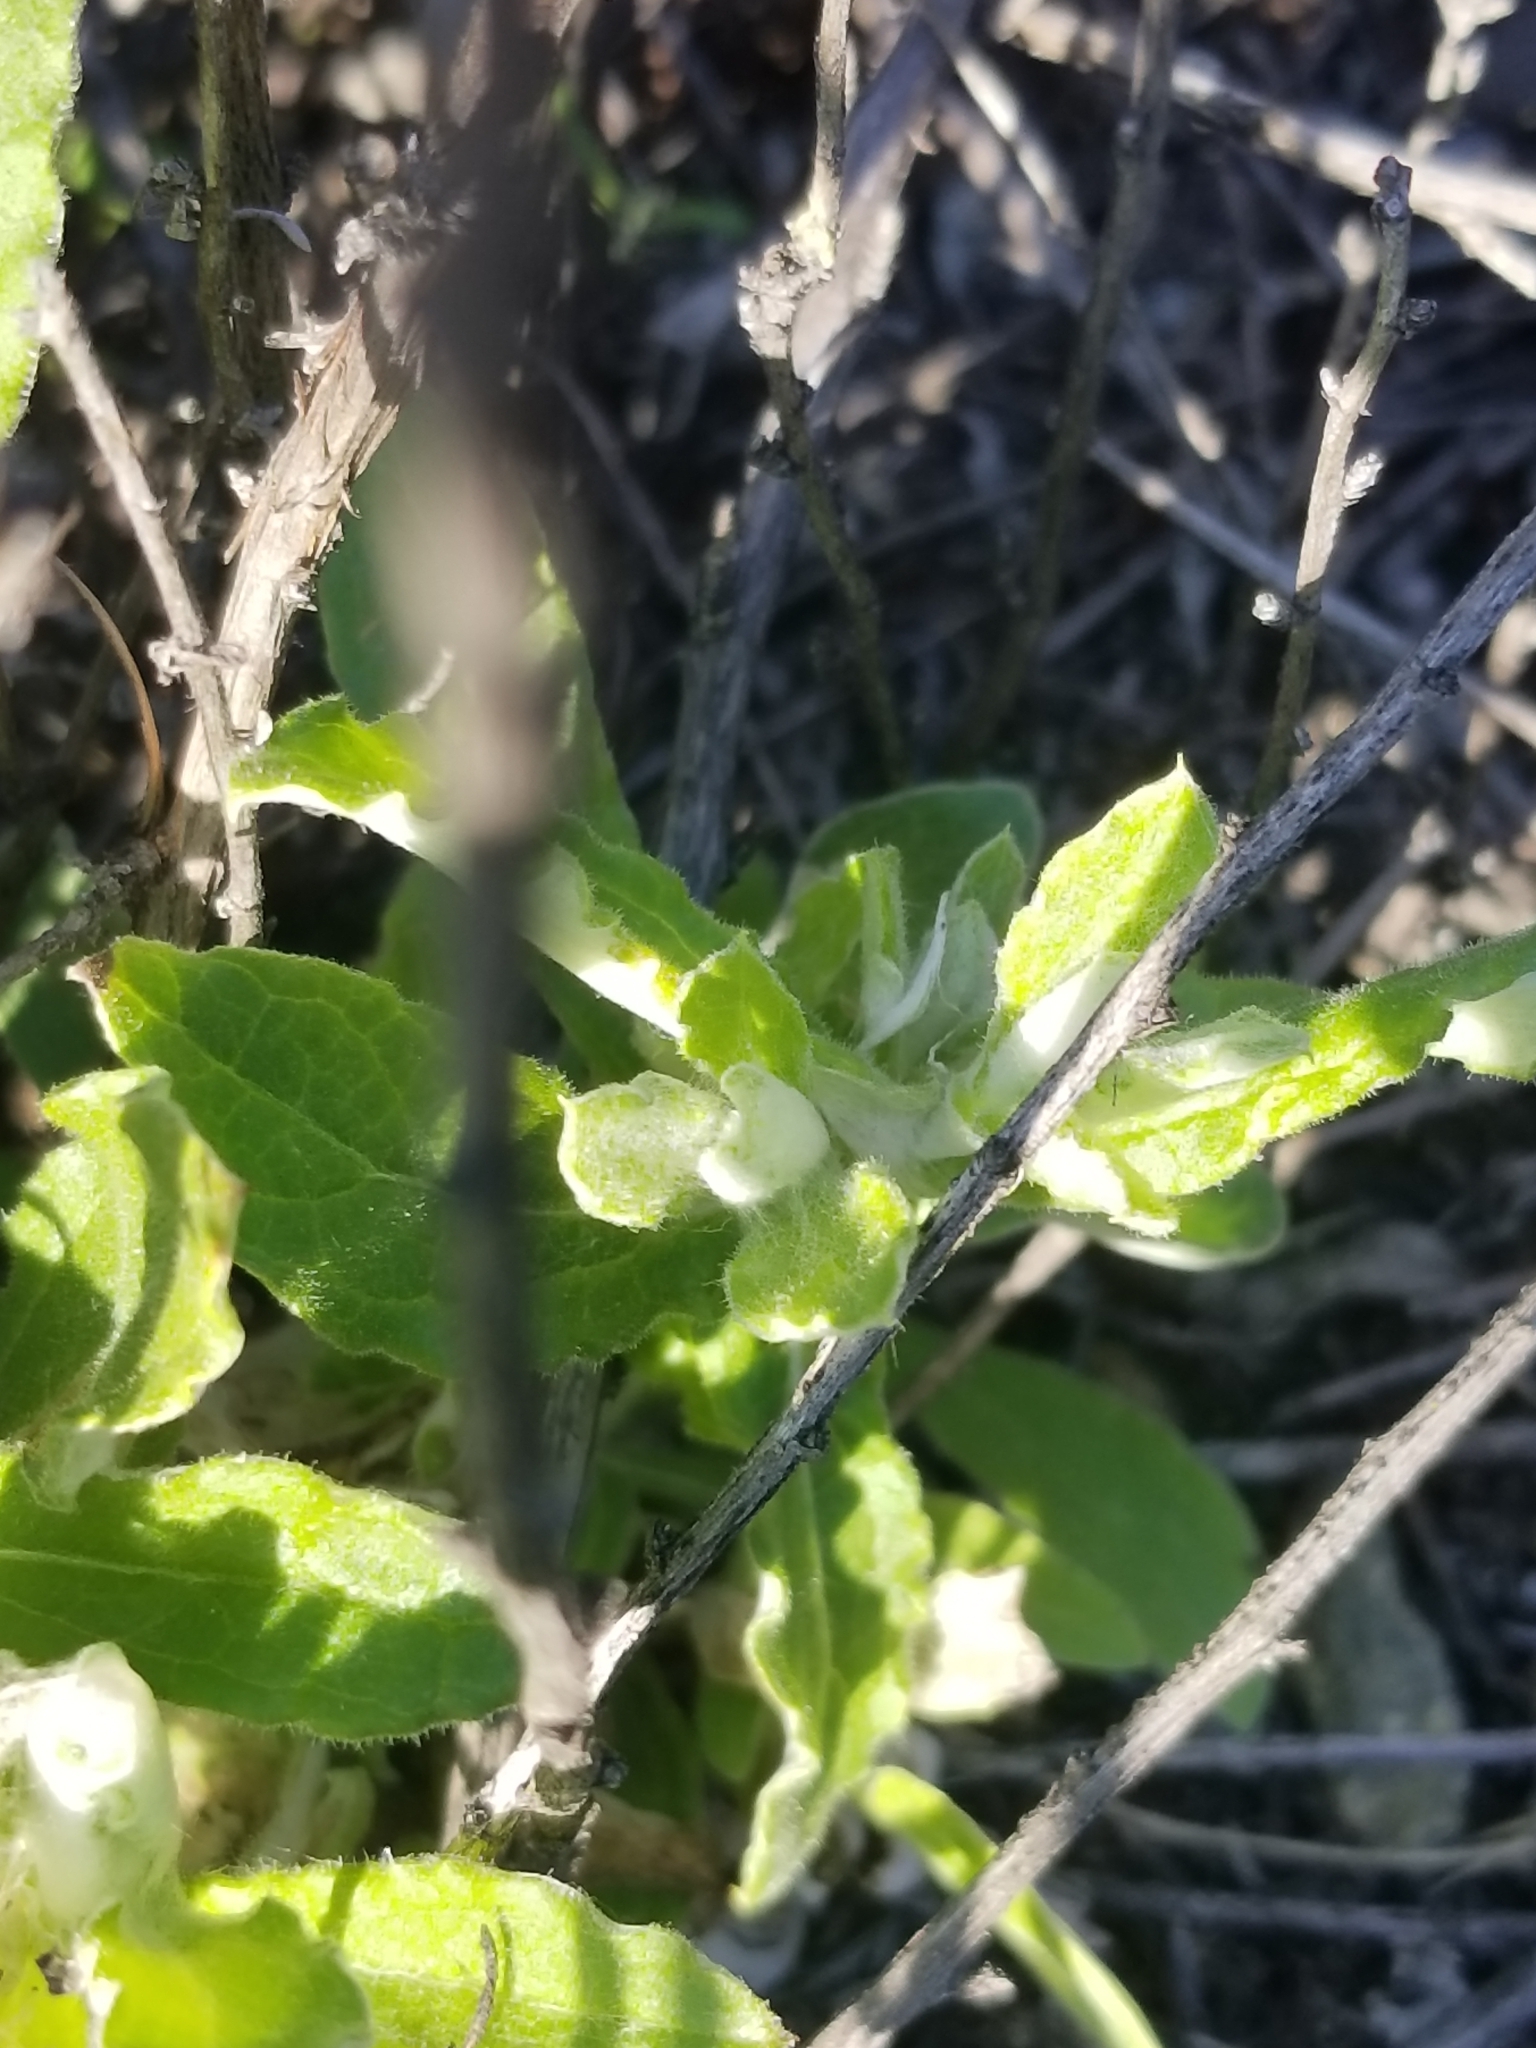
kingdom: Plantae
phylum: Tracheophyta
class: Magnoliopsida
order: Asterales
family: Asteraceae
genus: Pseudognaphalium
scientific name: Pseudognaphalium biolettii
